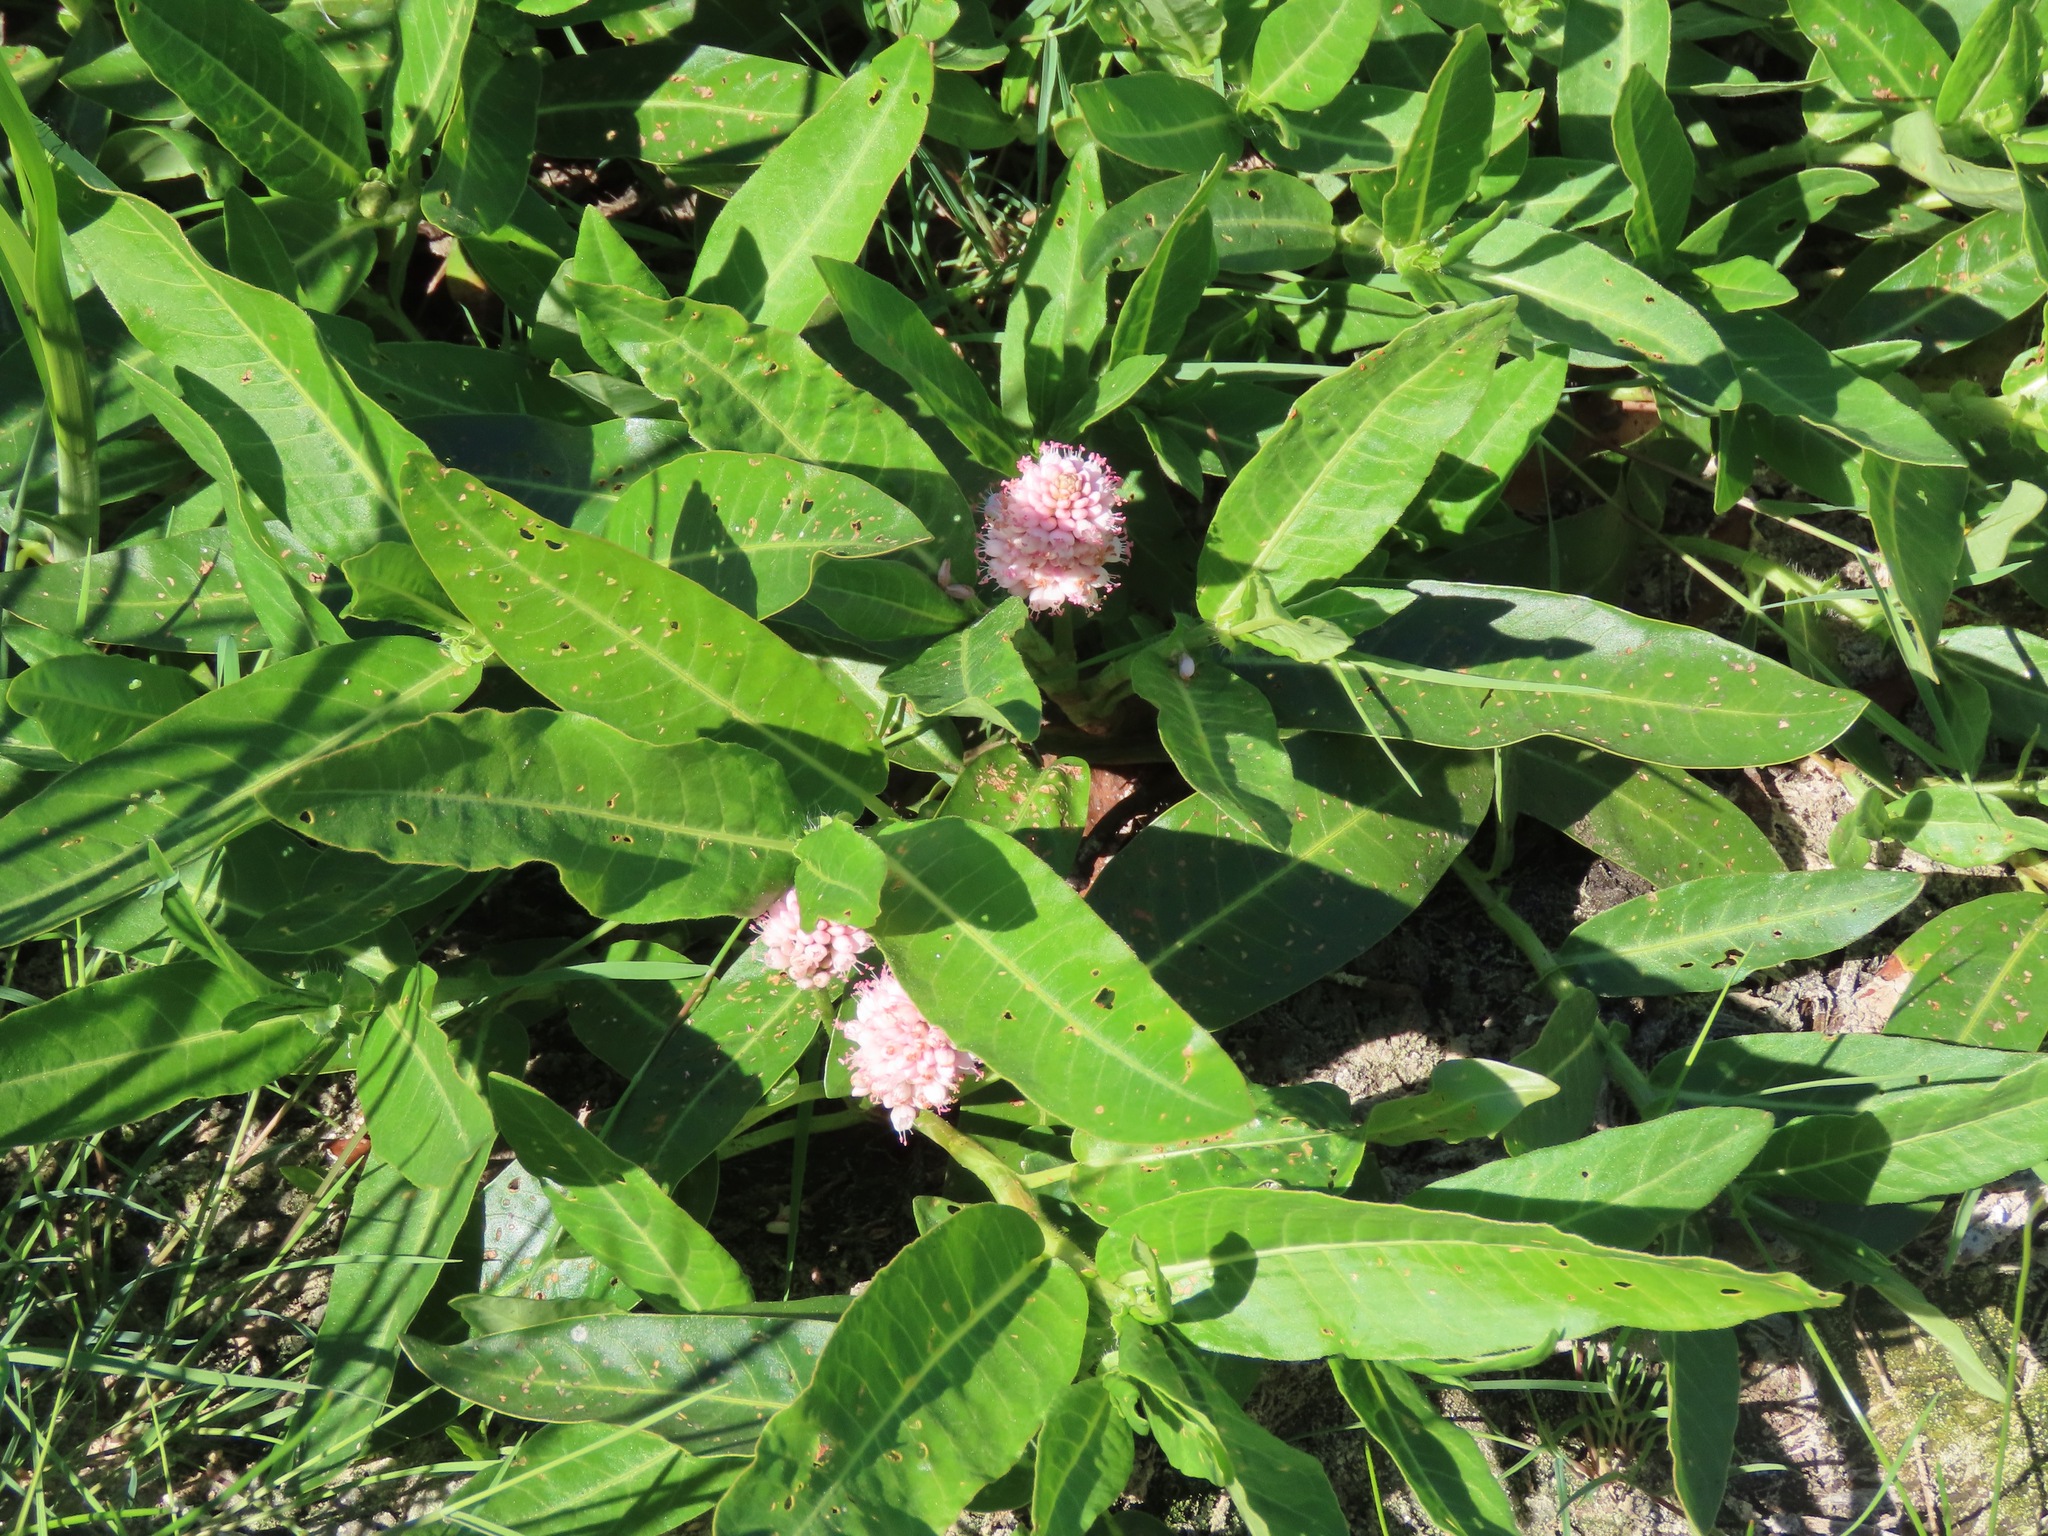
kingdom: Plantae
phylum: Tracheophyta
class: Magnoliopsida
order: Caryophyllales
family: Polygonaceae
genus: Persicaria
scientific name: Persicaria amphibia
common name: Amphibious bistort
